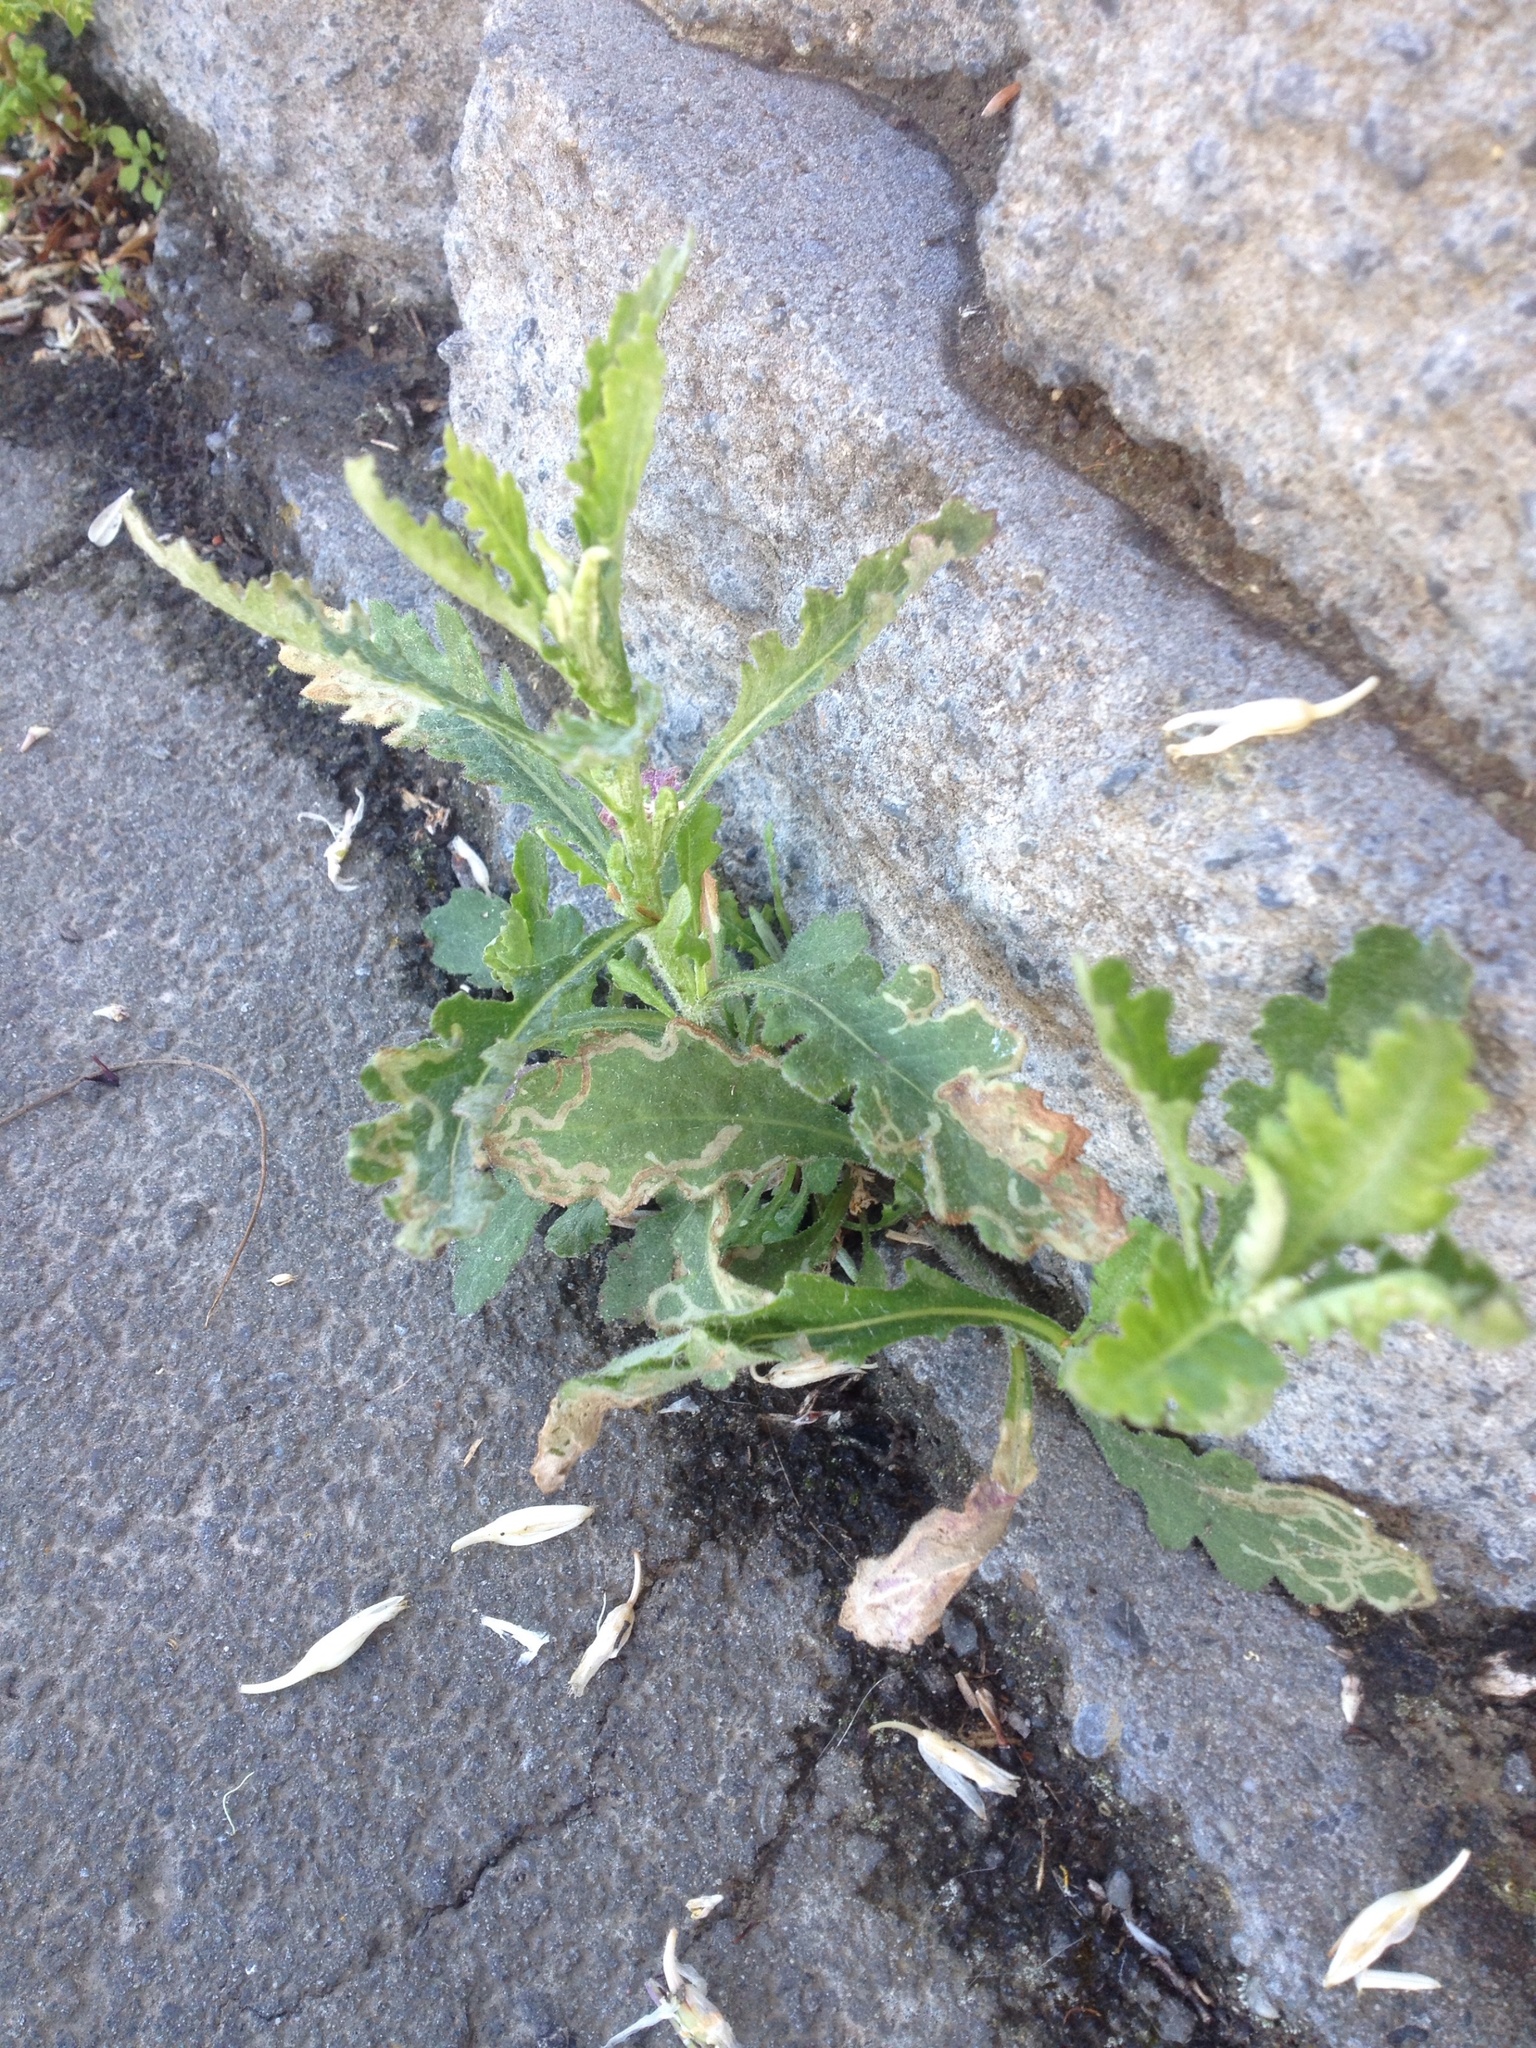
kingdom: Plantae
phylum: Tracheophyta
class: Magnoliopsida
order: Asterales
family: Asteraceae
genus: Senecio
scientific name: Senecio glomeratus
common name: Cutleaf burnweed
